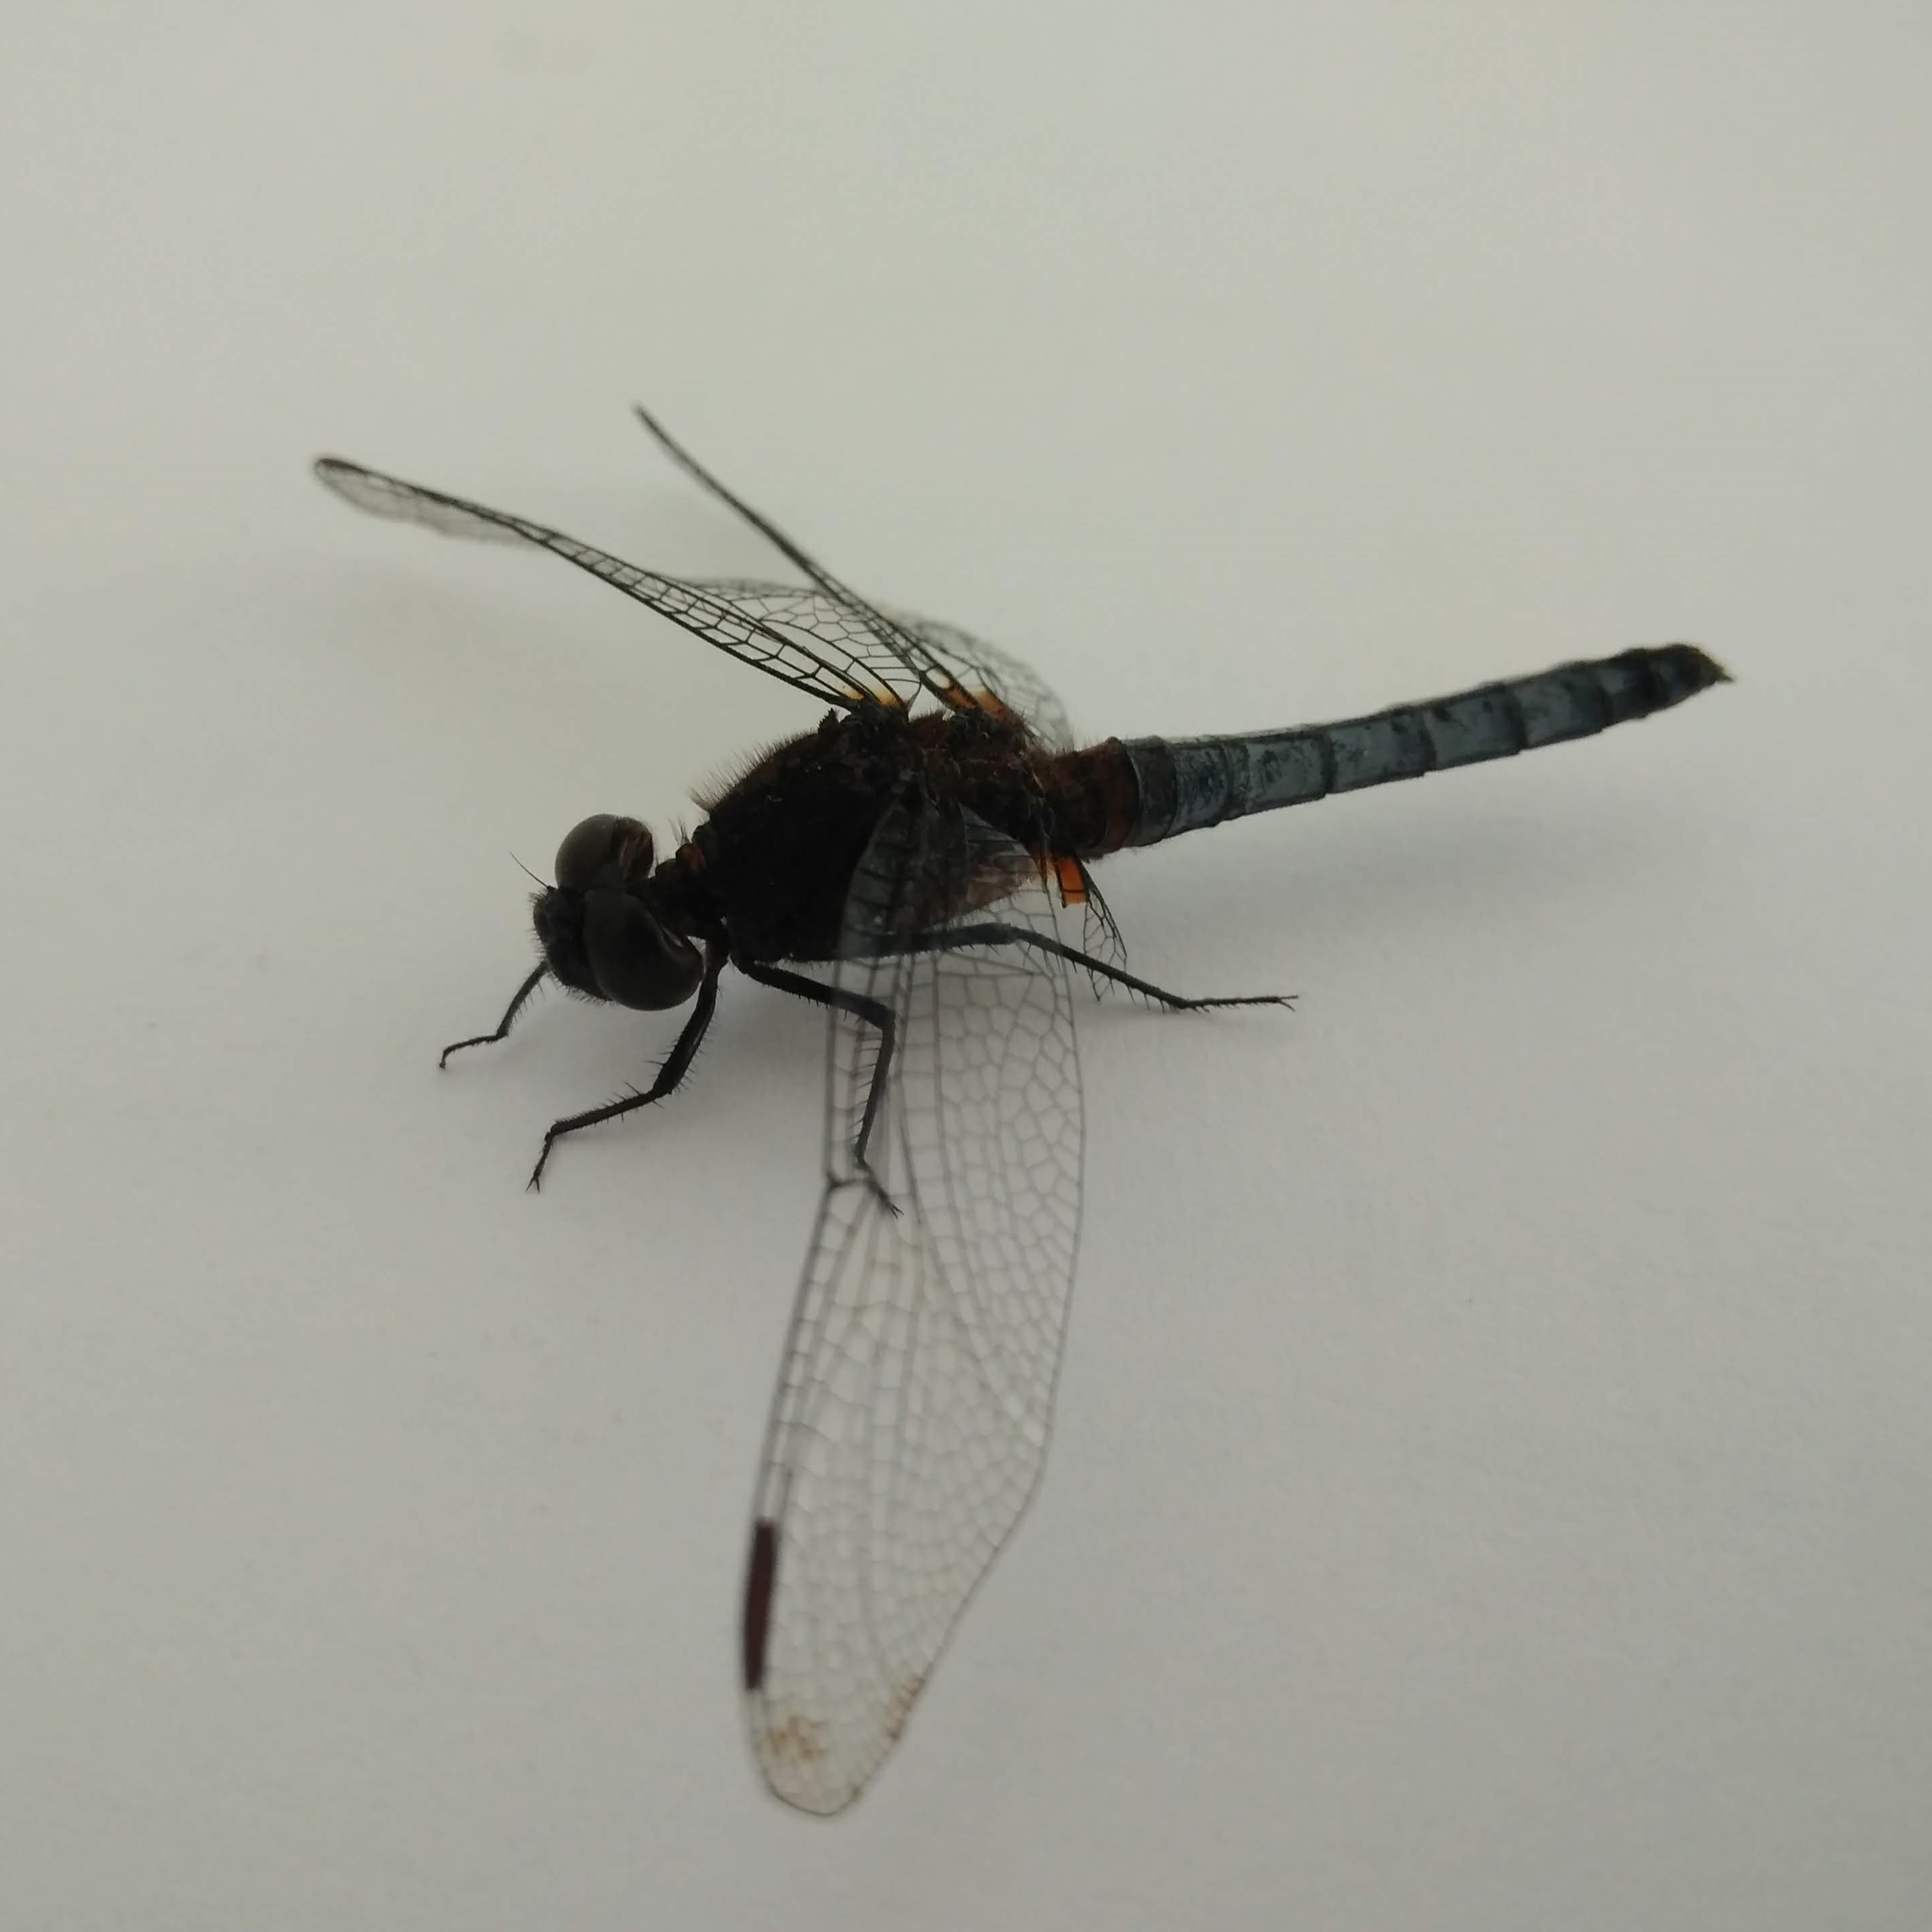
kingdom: Animalia
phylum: Arthropoda
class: Insecta
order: Odonata
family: Libellulidae
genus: Erythrodiplax
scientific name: Erythrodiplax connata
